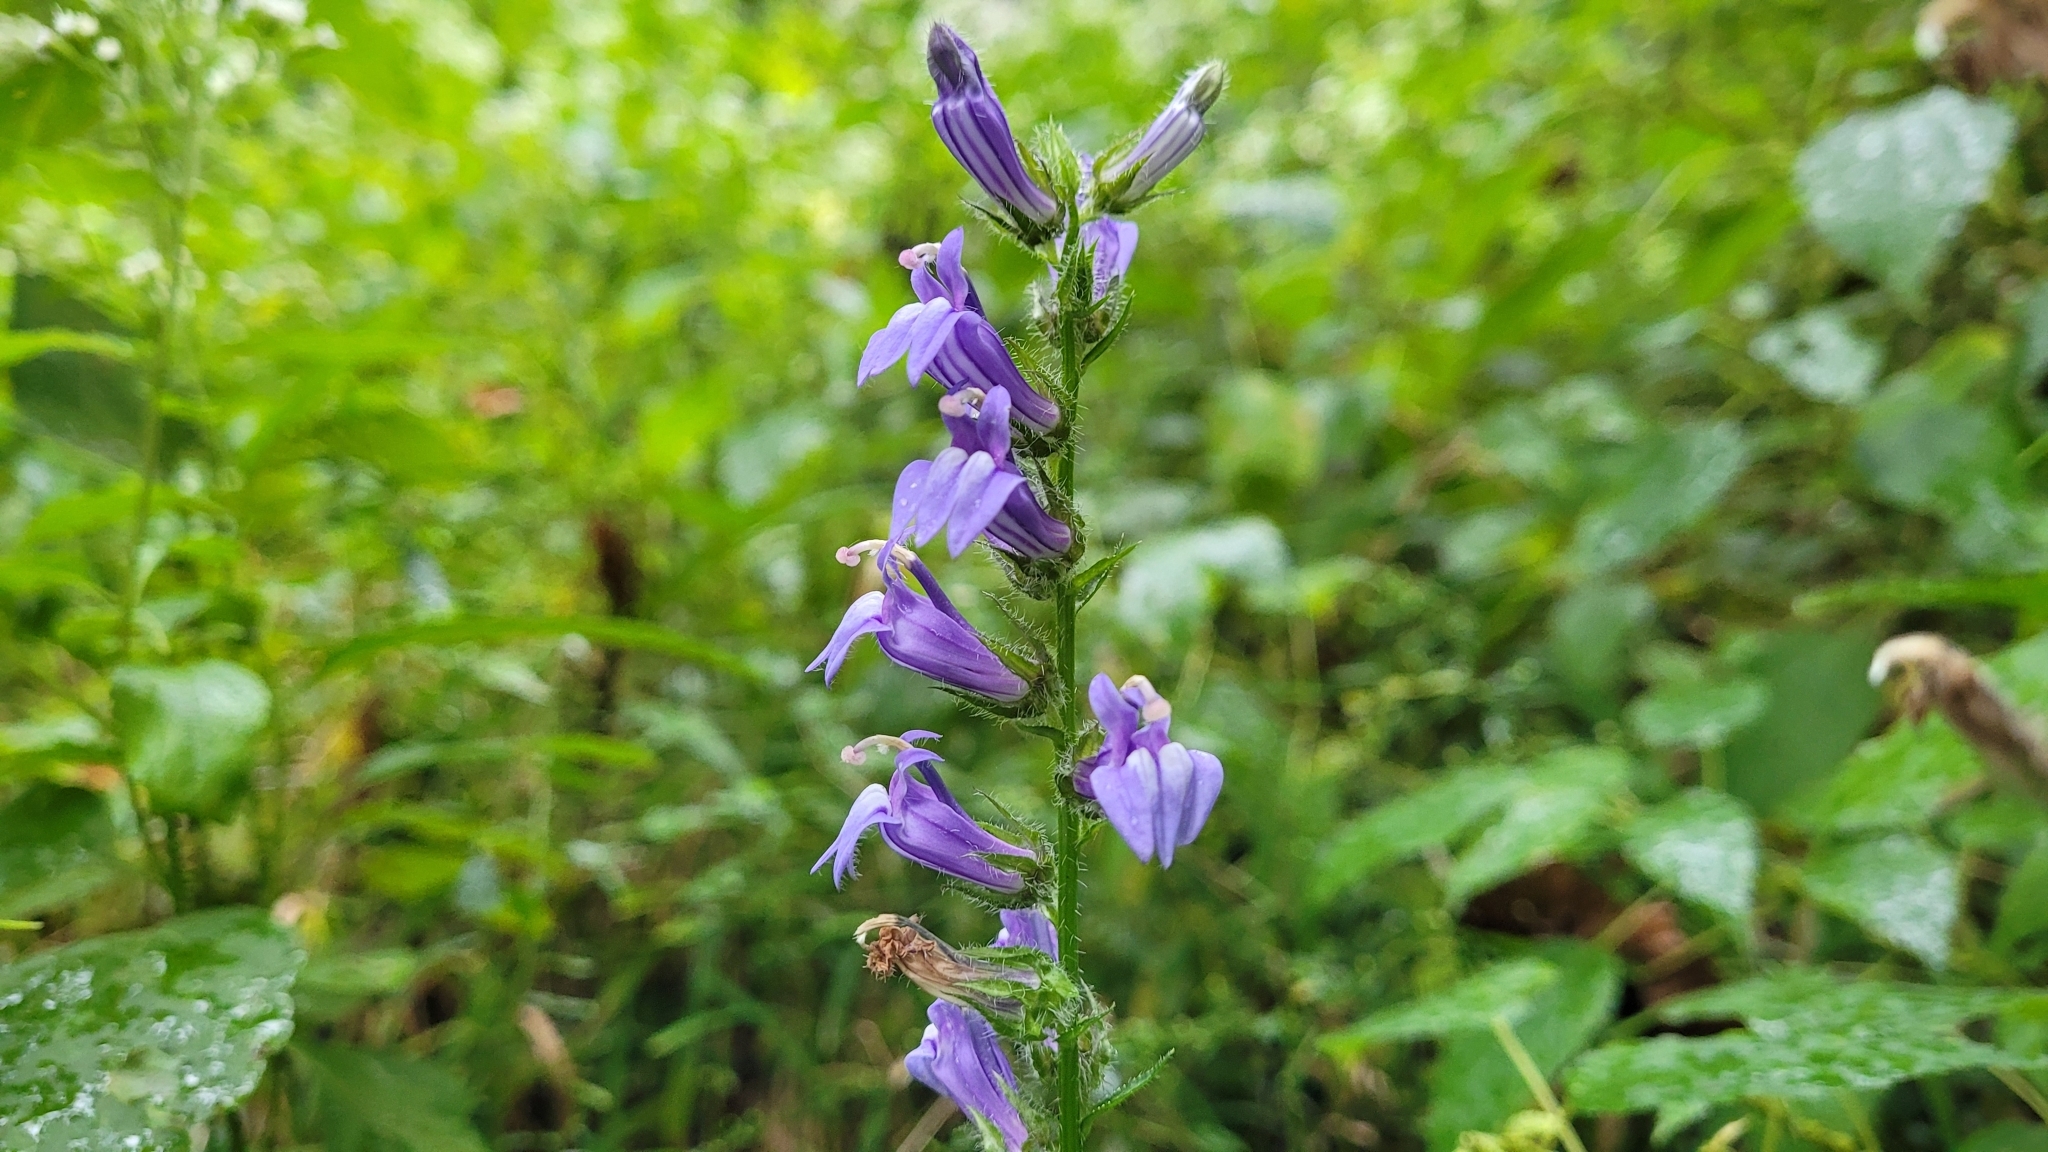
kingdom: Plantae
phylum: Tracheophyta
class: Magnoliopsida
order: Asterales
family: Campanulaceae
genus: Lobelia
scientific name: Lobelia siphilitica
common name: Great lobelia
